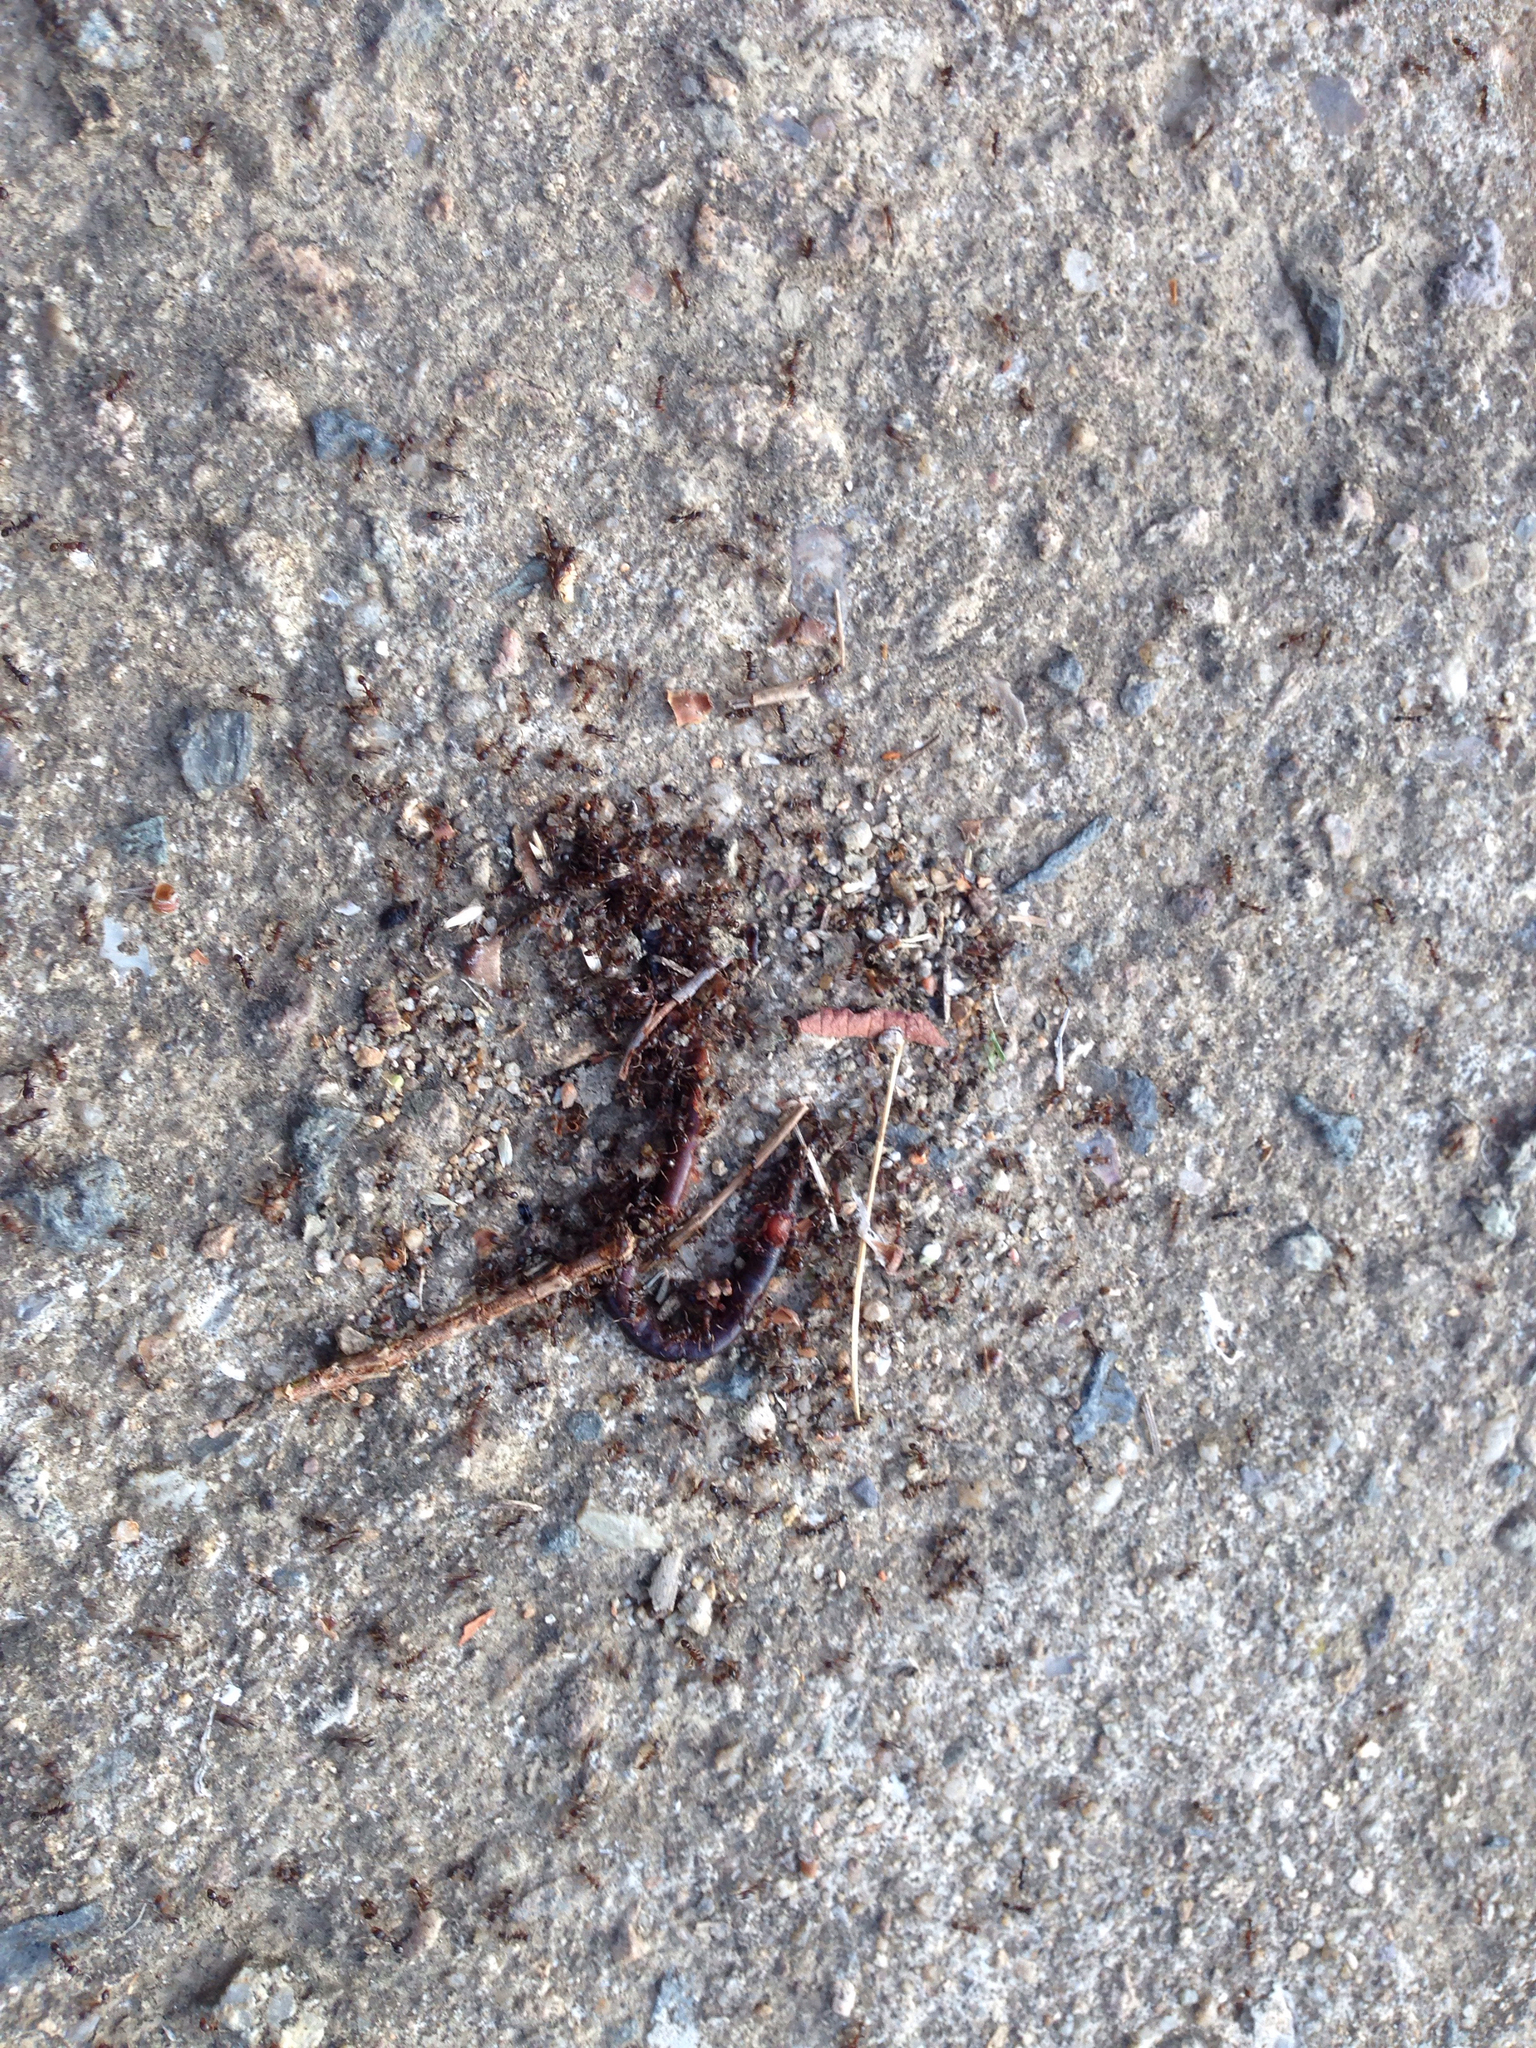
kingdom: Animalia
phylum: Arthropoda
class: Insecta
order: Hymenoptera
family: Formicidae
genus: Tetramorium
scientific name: Tetramorium tsushimae
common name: Ant
